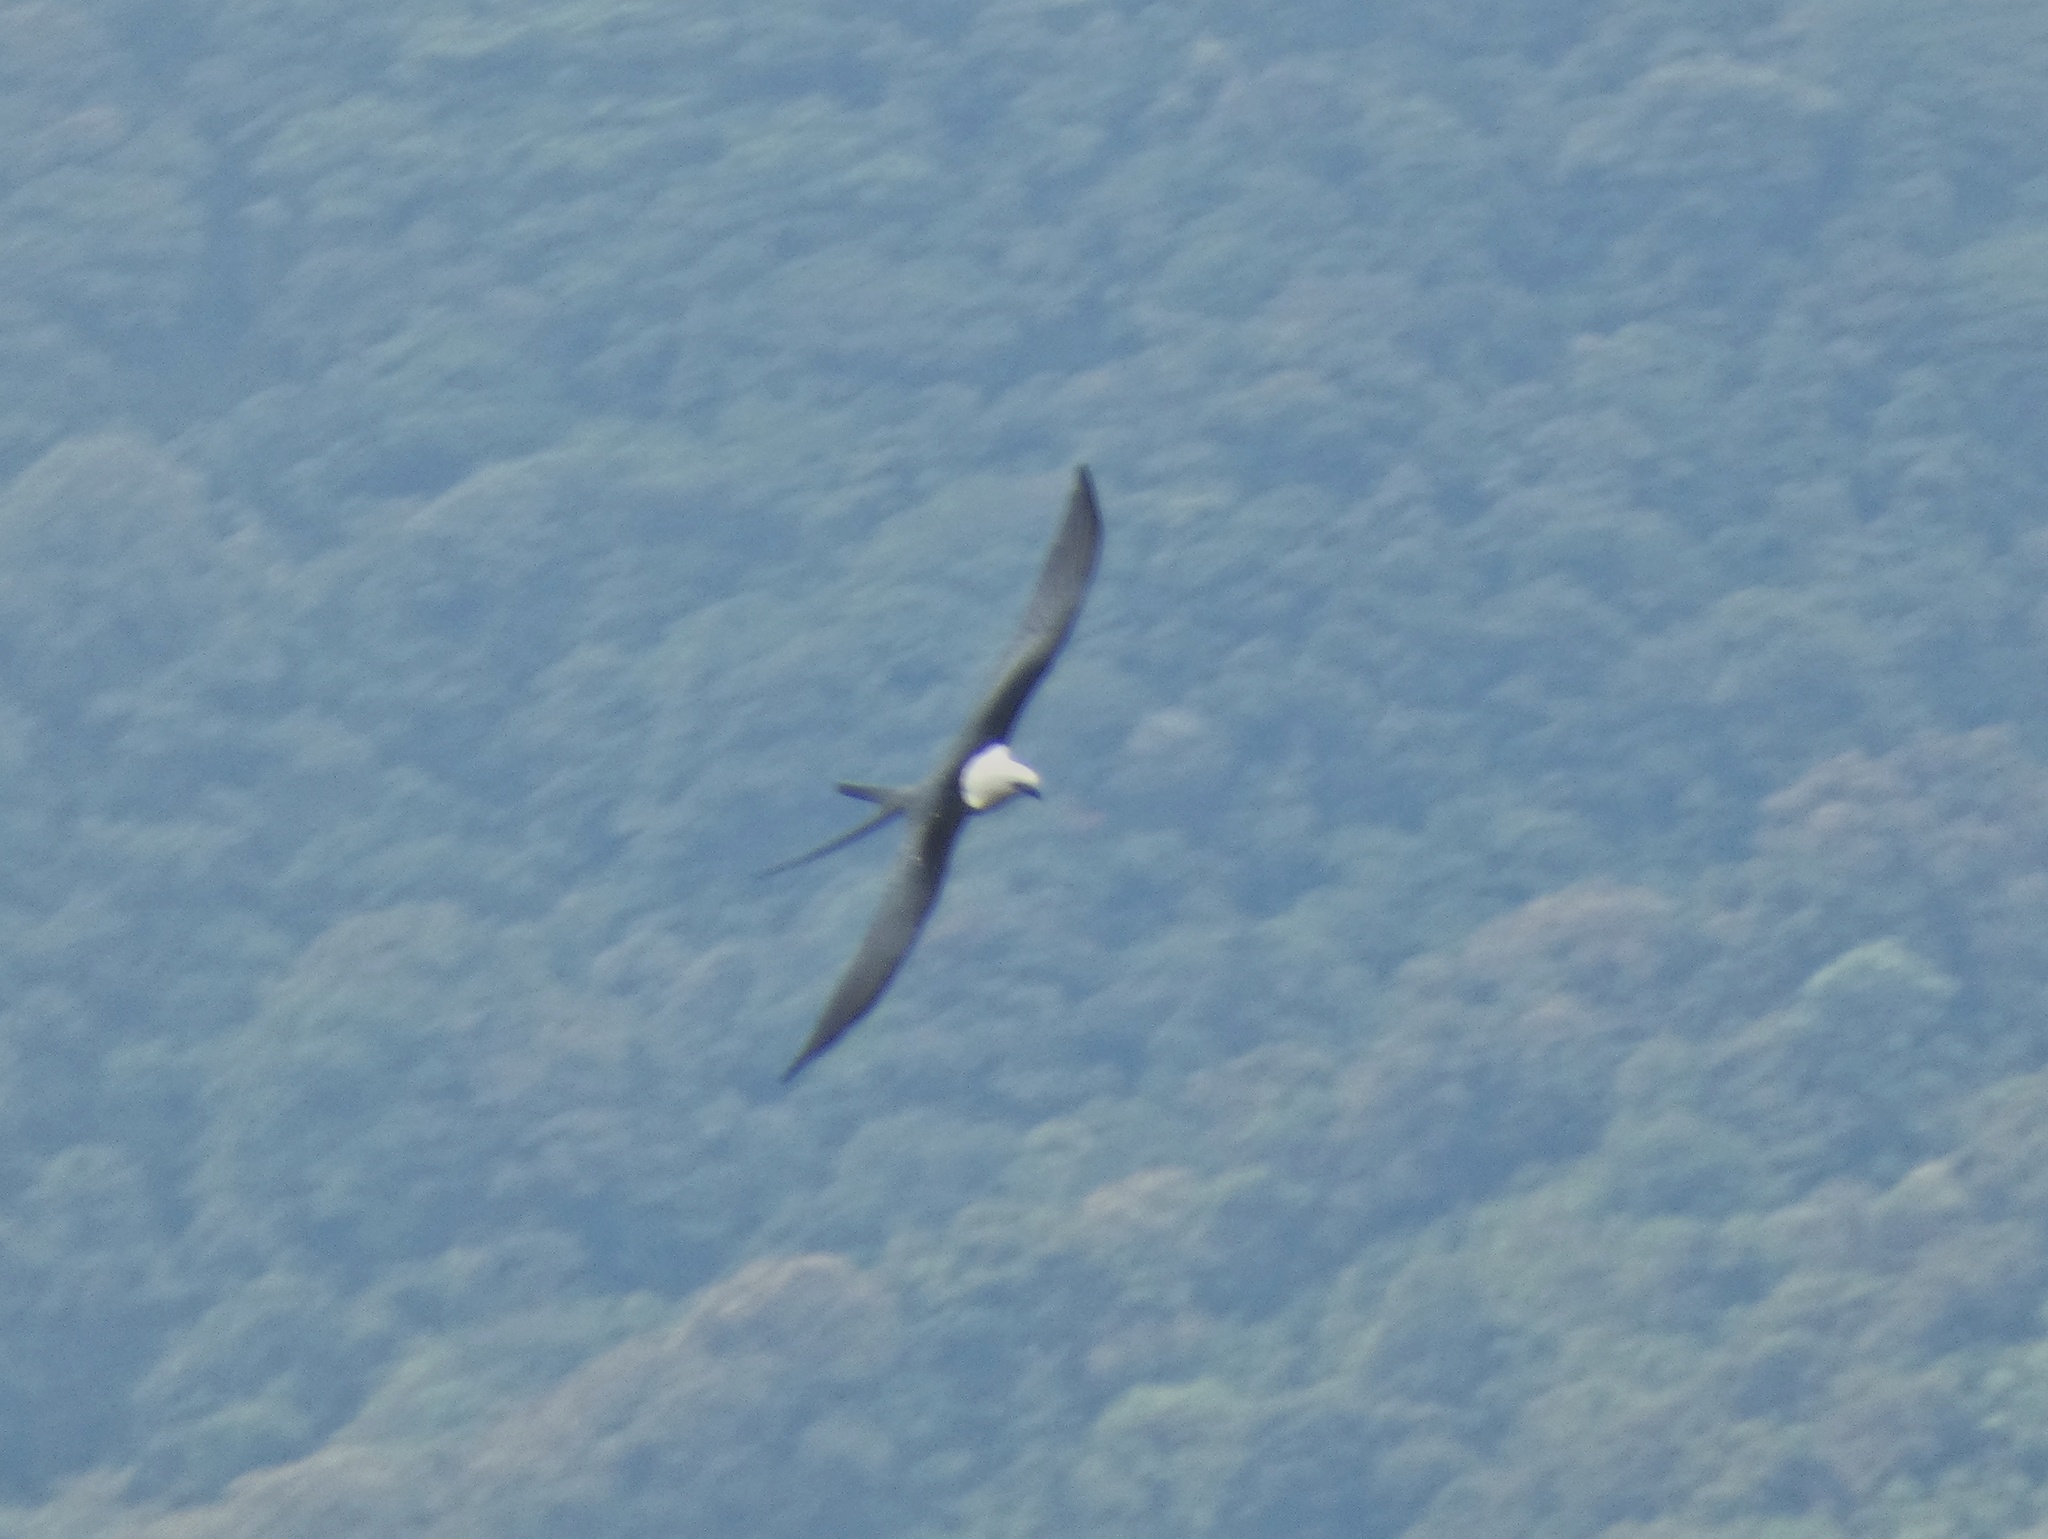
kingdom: Animalia
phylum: Chordata
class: Aves
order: Accipitriformes
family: Accipitridae
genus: Elanoides
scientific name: Elanoides forficatus
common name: Swallow-tailed kite
